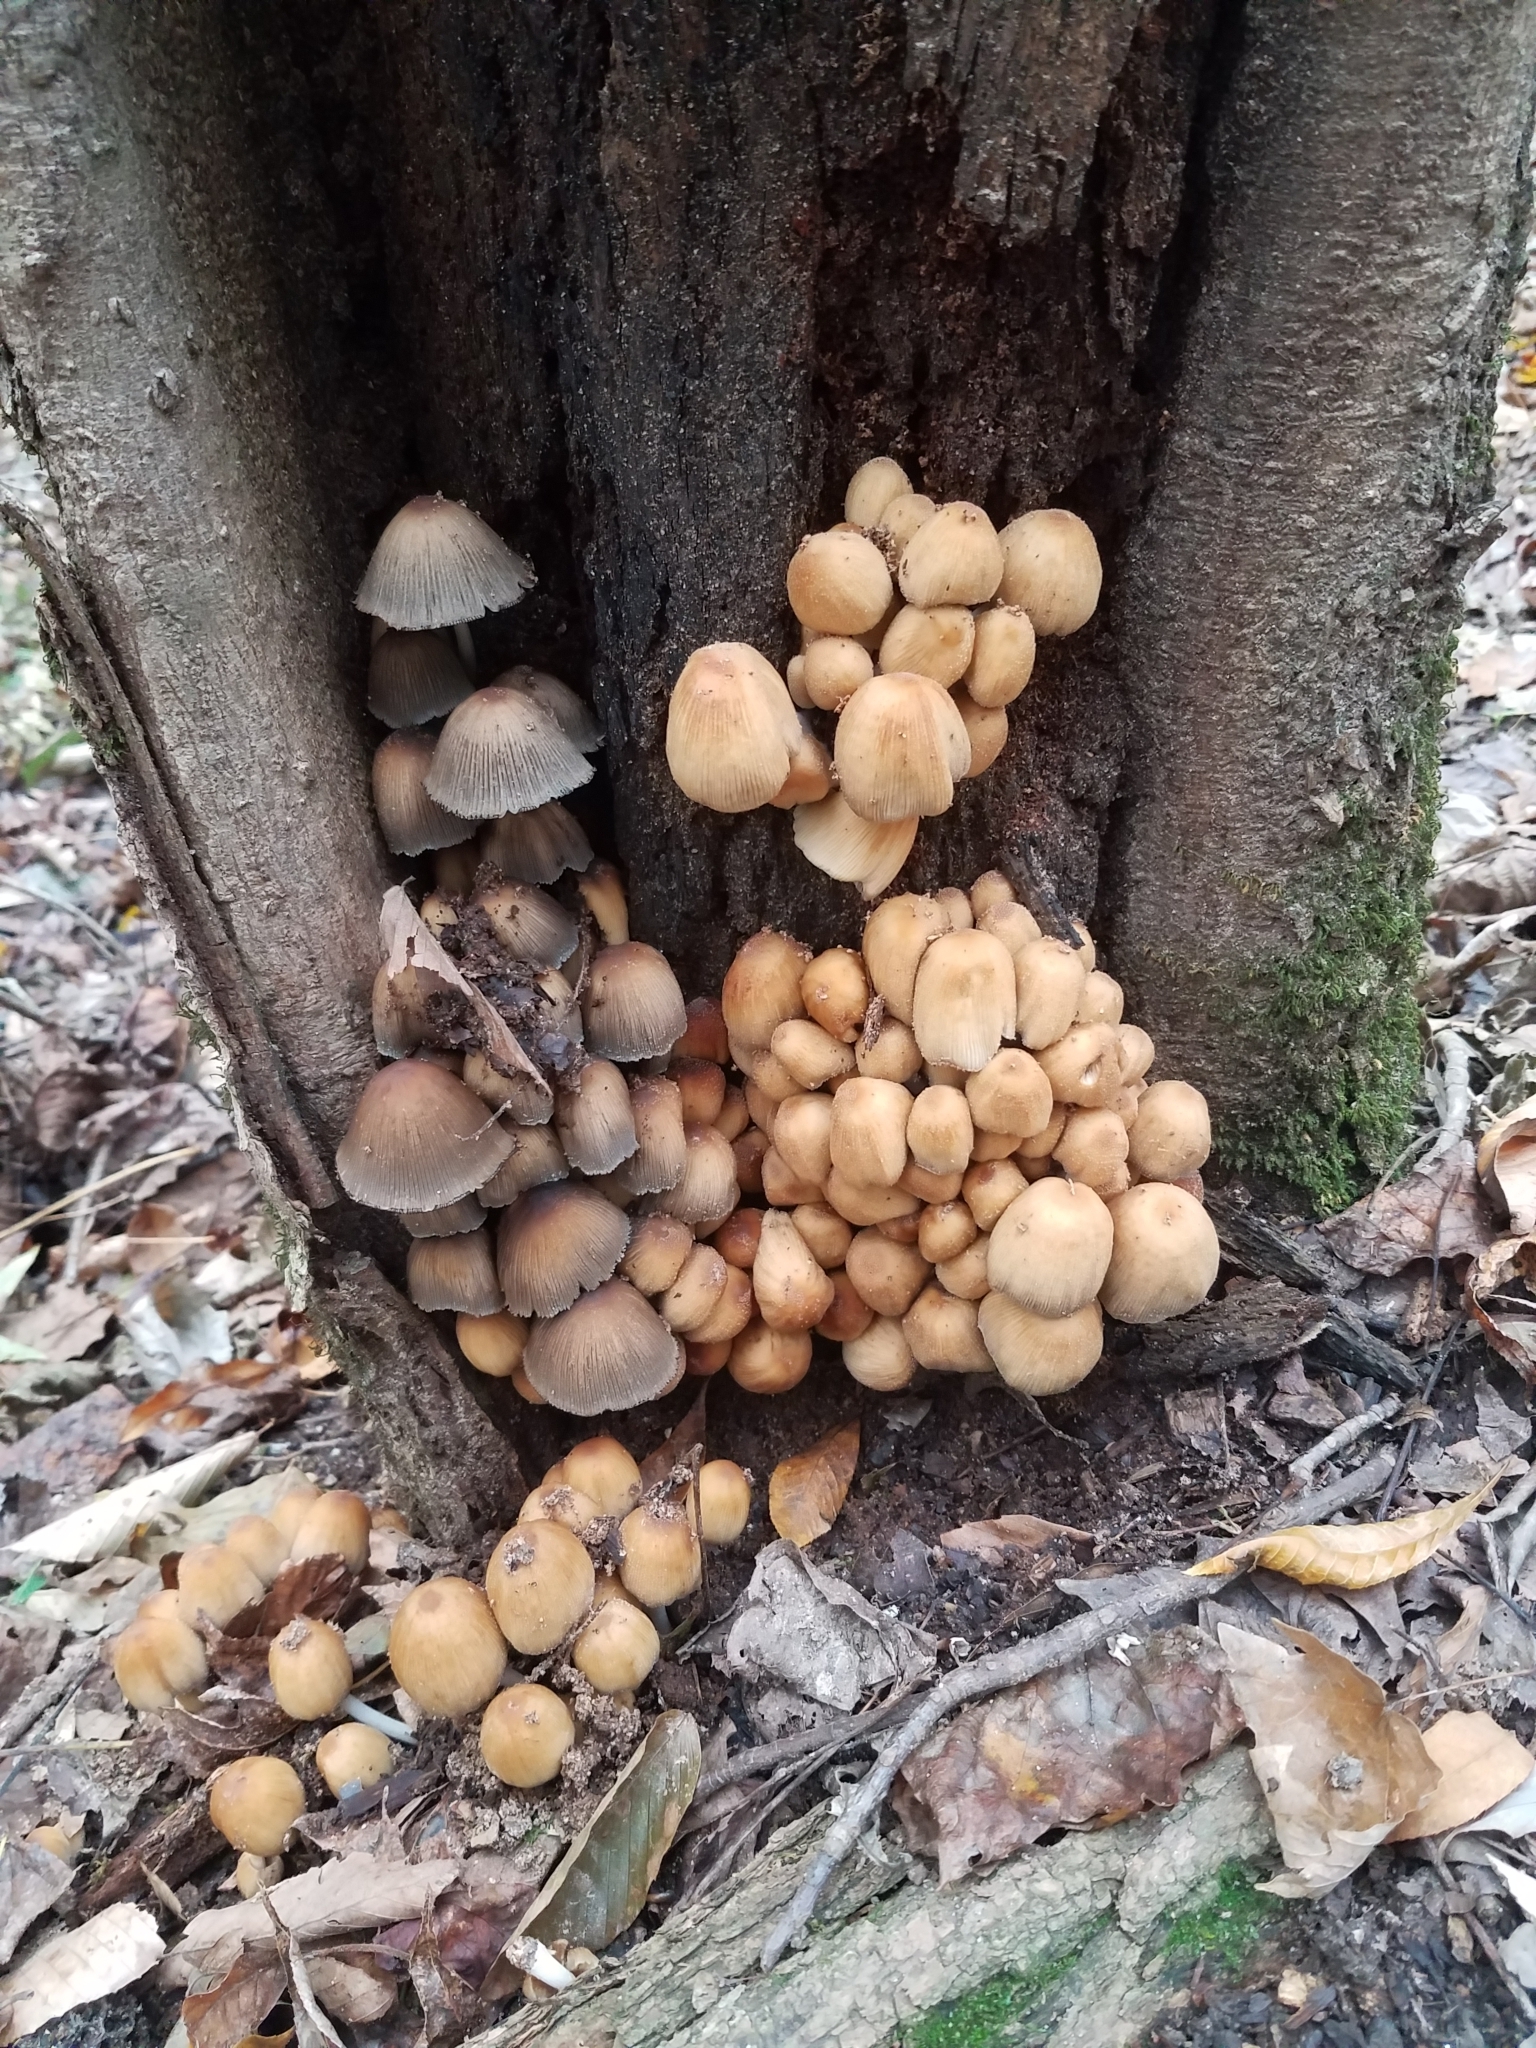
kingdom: Fungi
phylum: Basidiomycota
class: Agaricomycetes
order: Agaricales
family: Psathyrellaceae
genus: Coprinellus
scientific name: Coprinellus micaceus
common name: Glistening ink-cap
